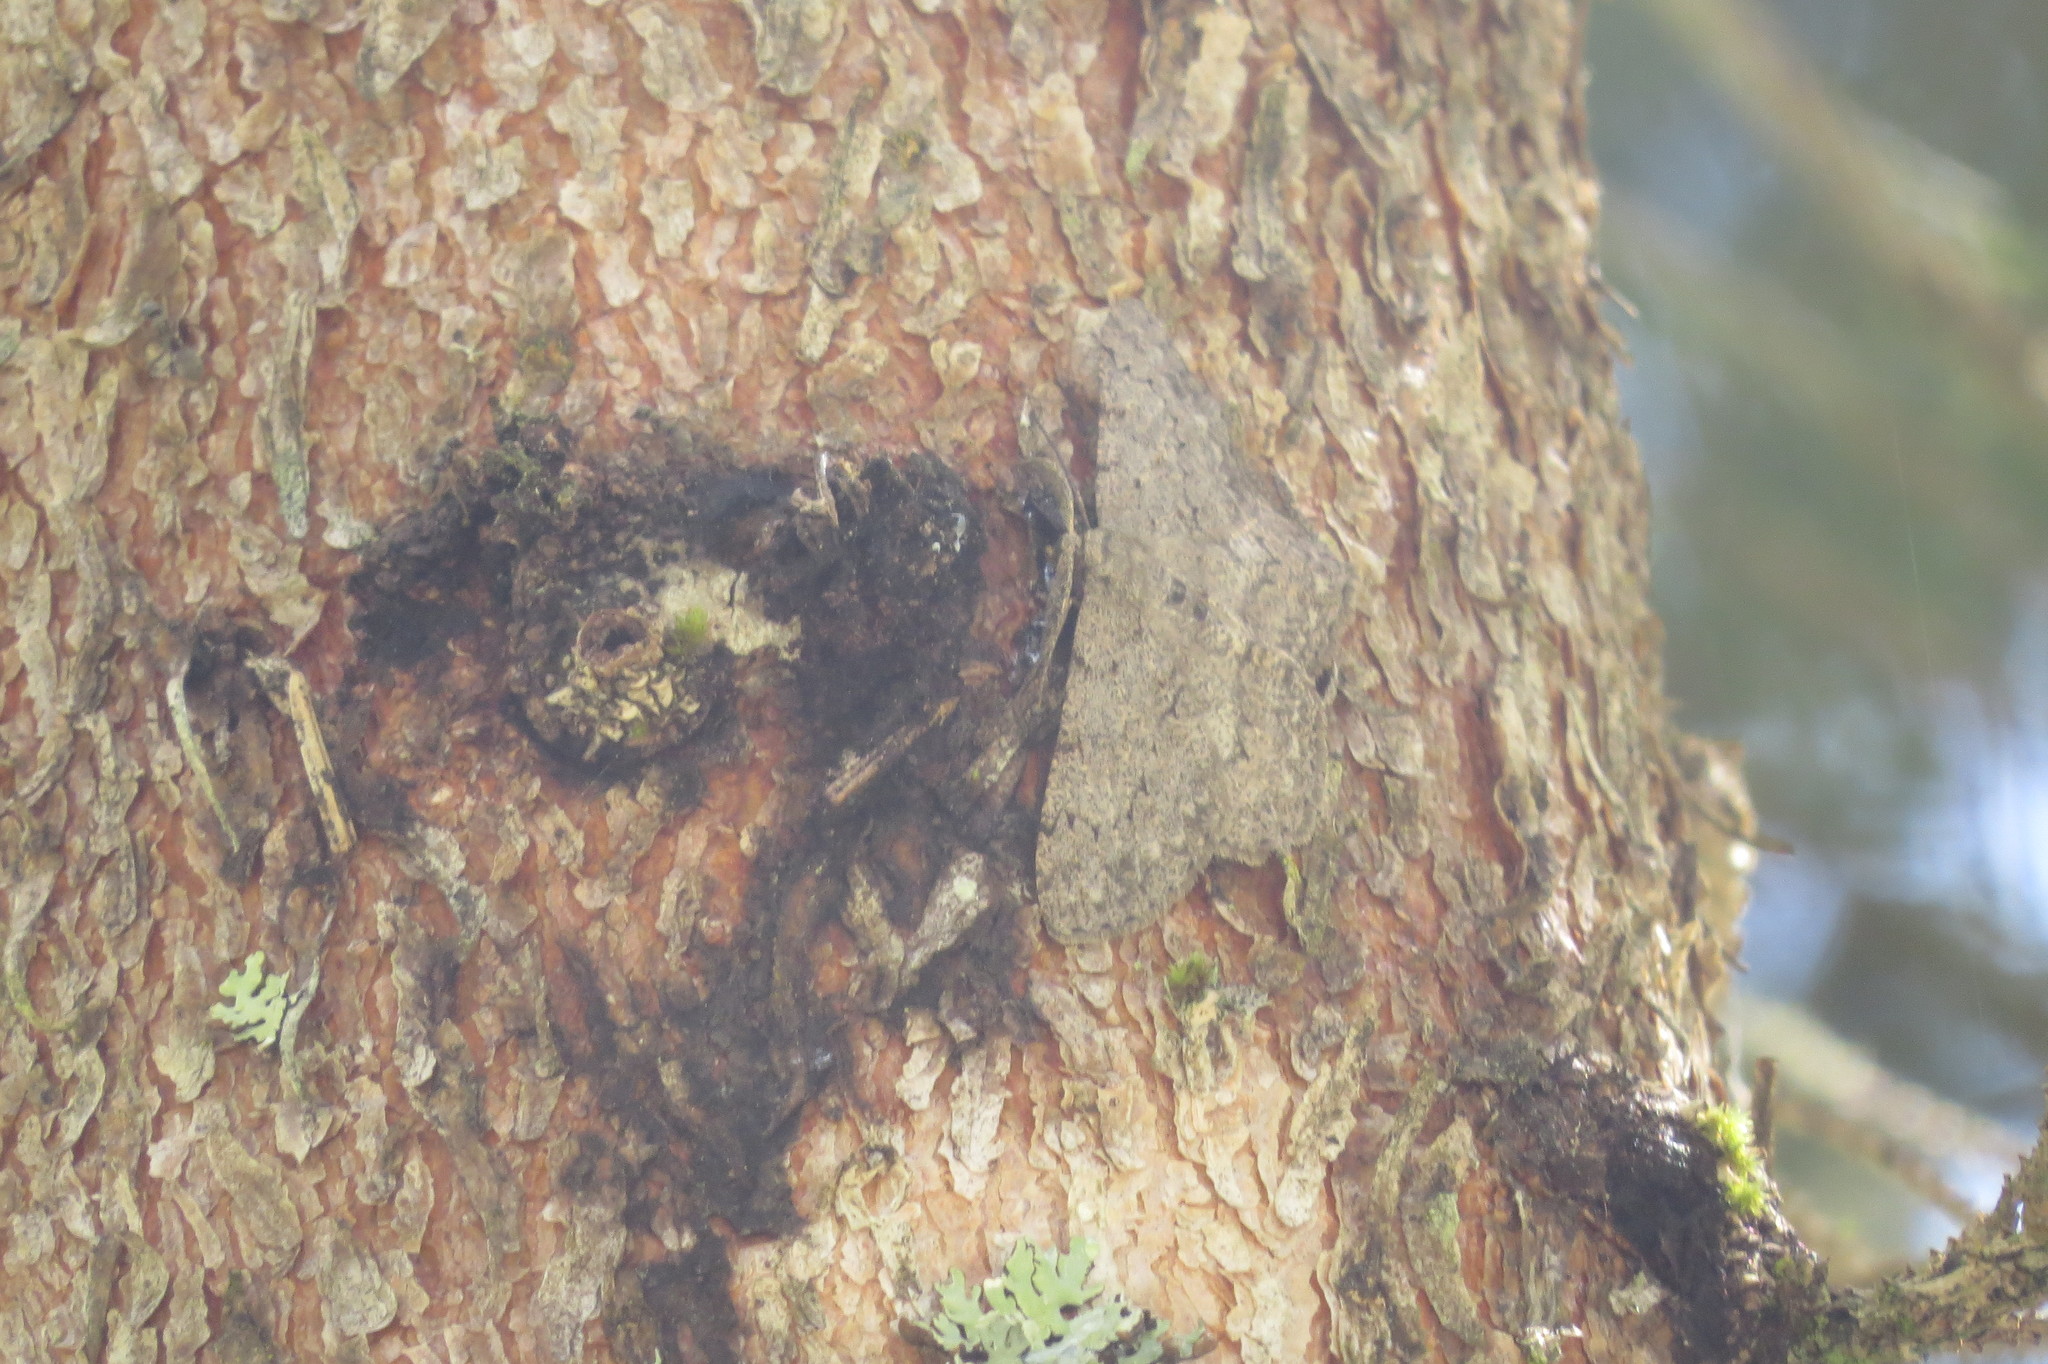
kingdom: Animalia
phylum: Arthropoda
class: Insecta
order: Lepidoptera
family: Geometridae
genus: Hypomecis
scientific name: Hypomecis punctinalis
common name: Pale oak beauty
